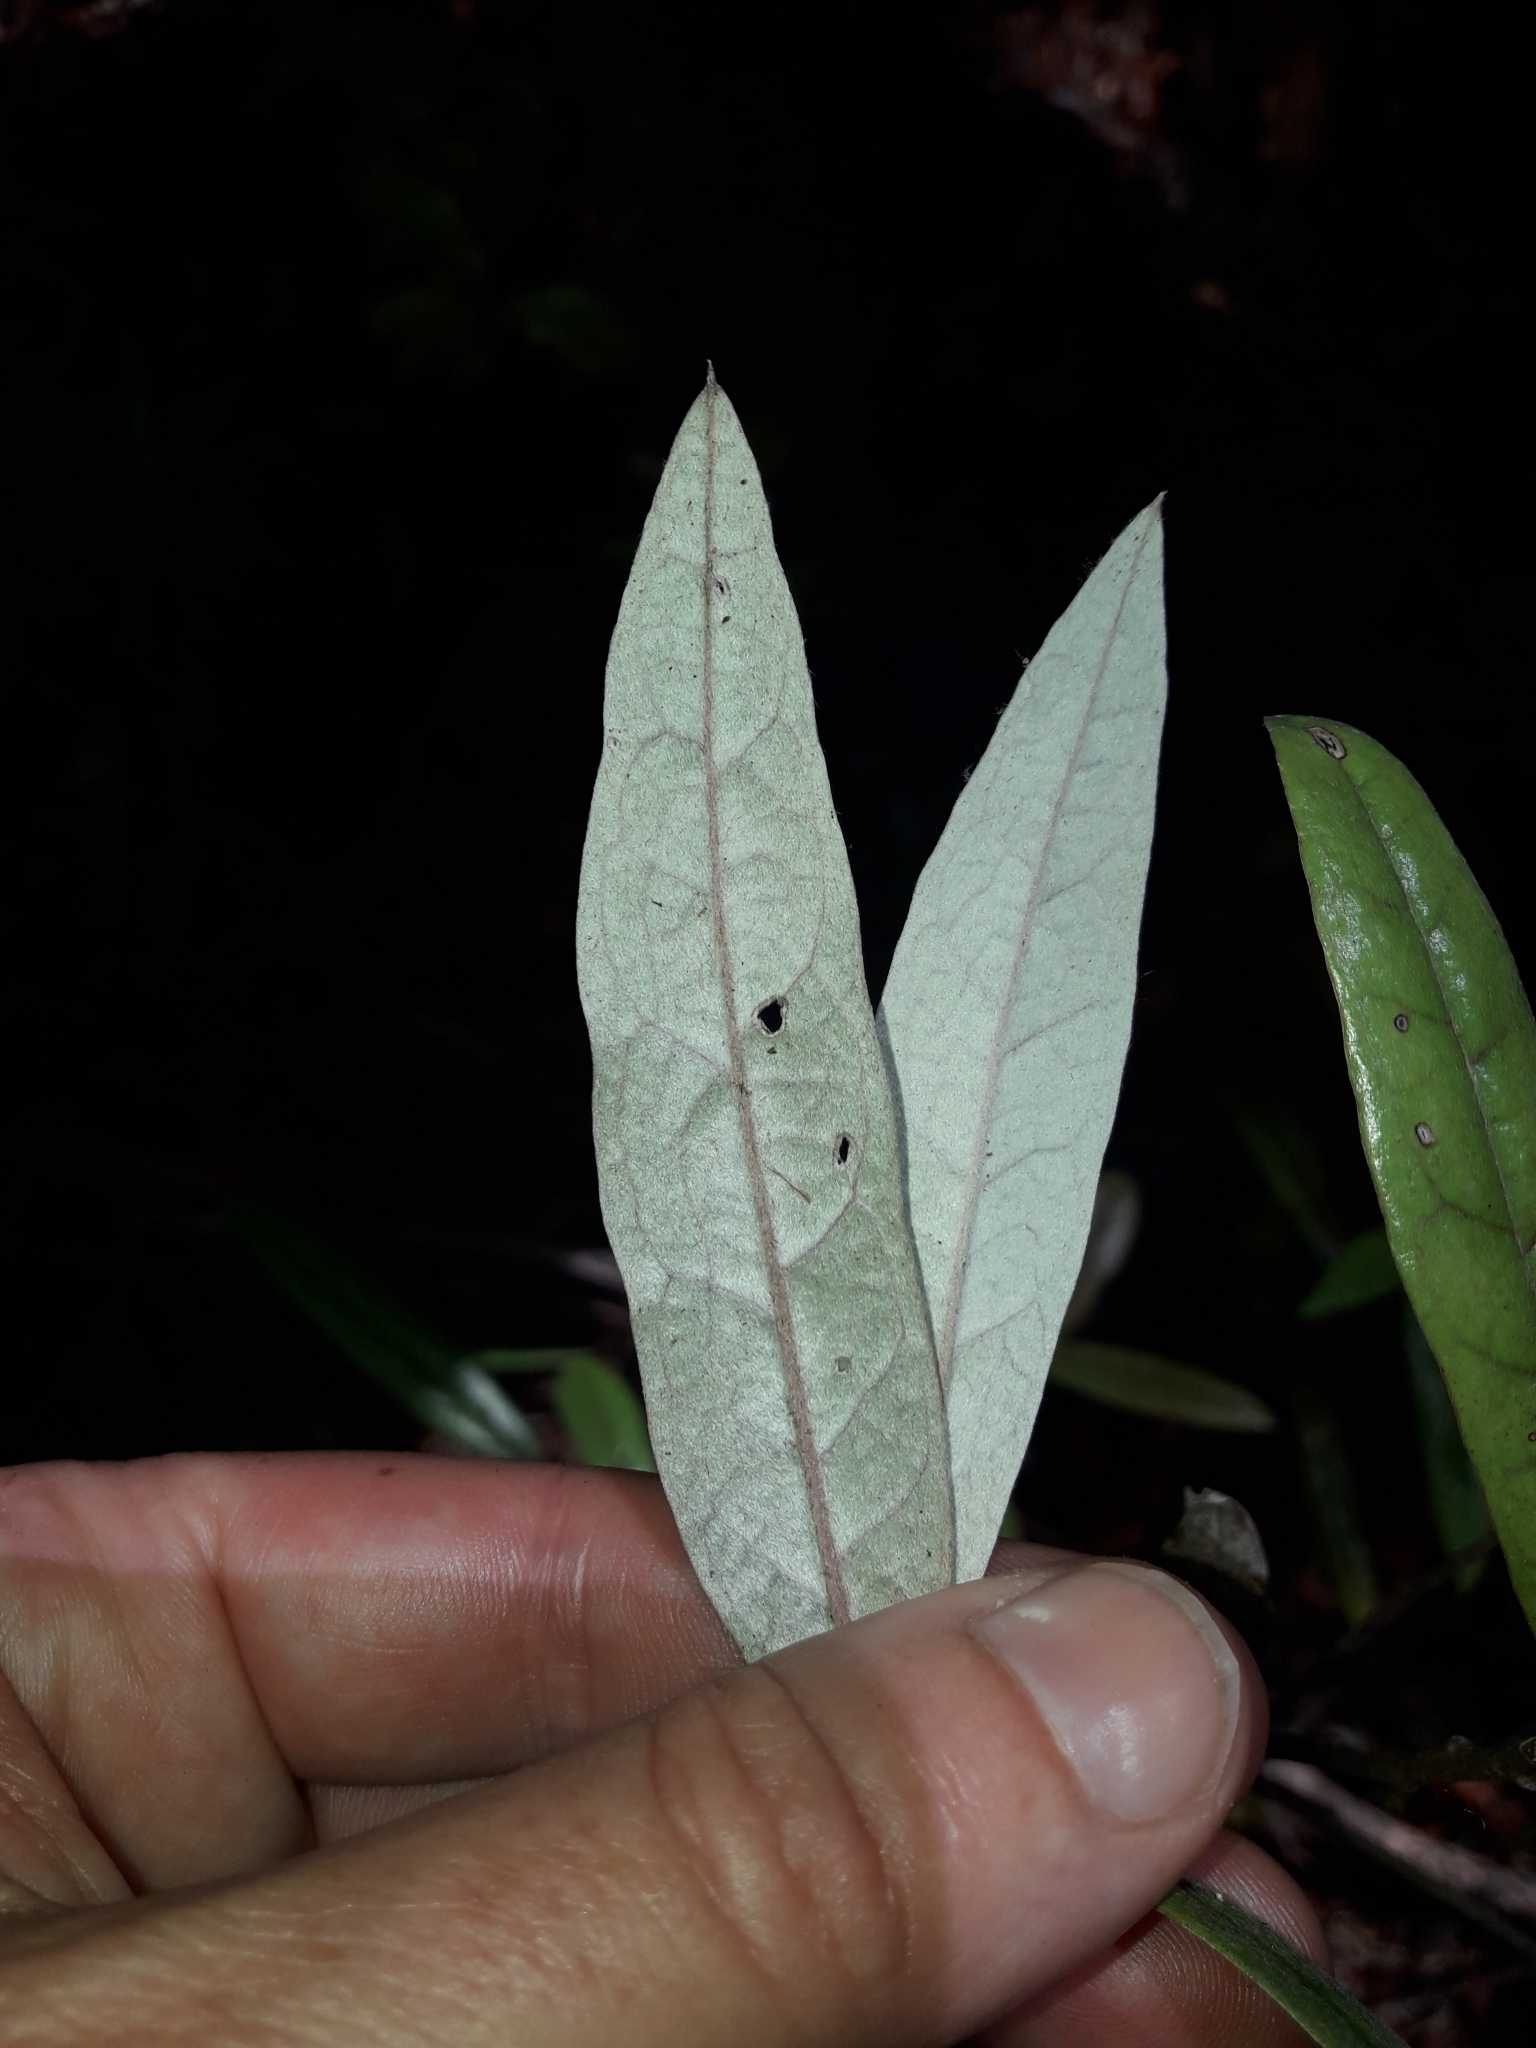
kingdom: Plantae
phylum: Tracheophyta
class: Magnoliopsida
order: Asterales
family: Argophyllaceae
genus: Corokia
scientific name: Corokia buddleioides
